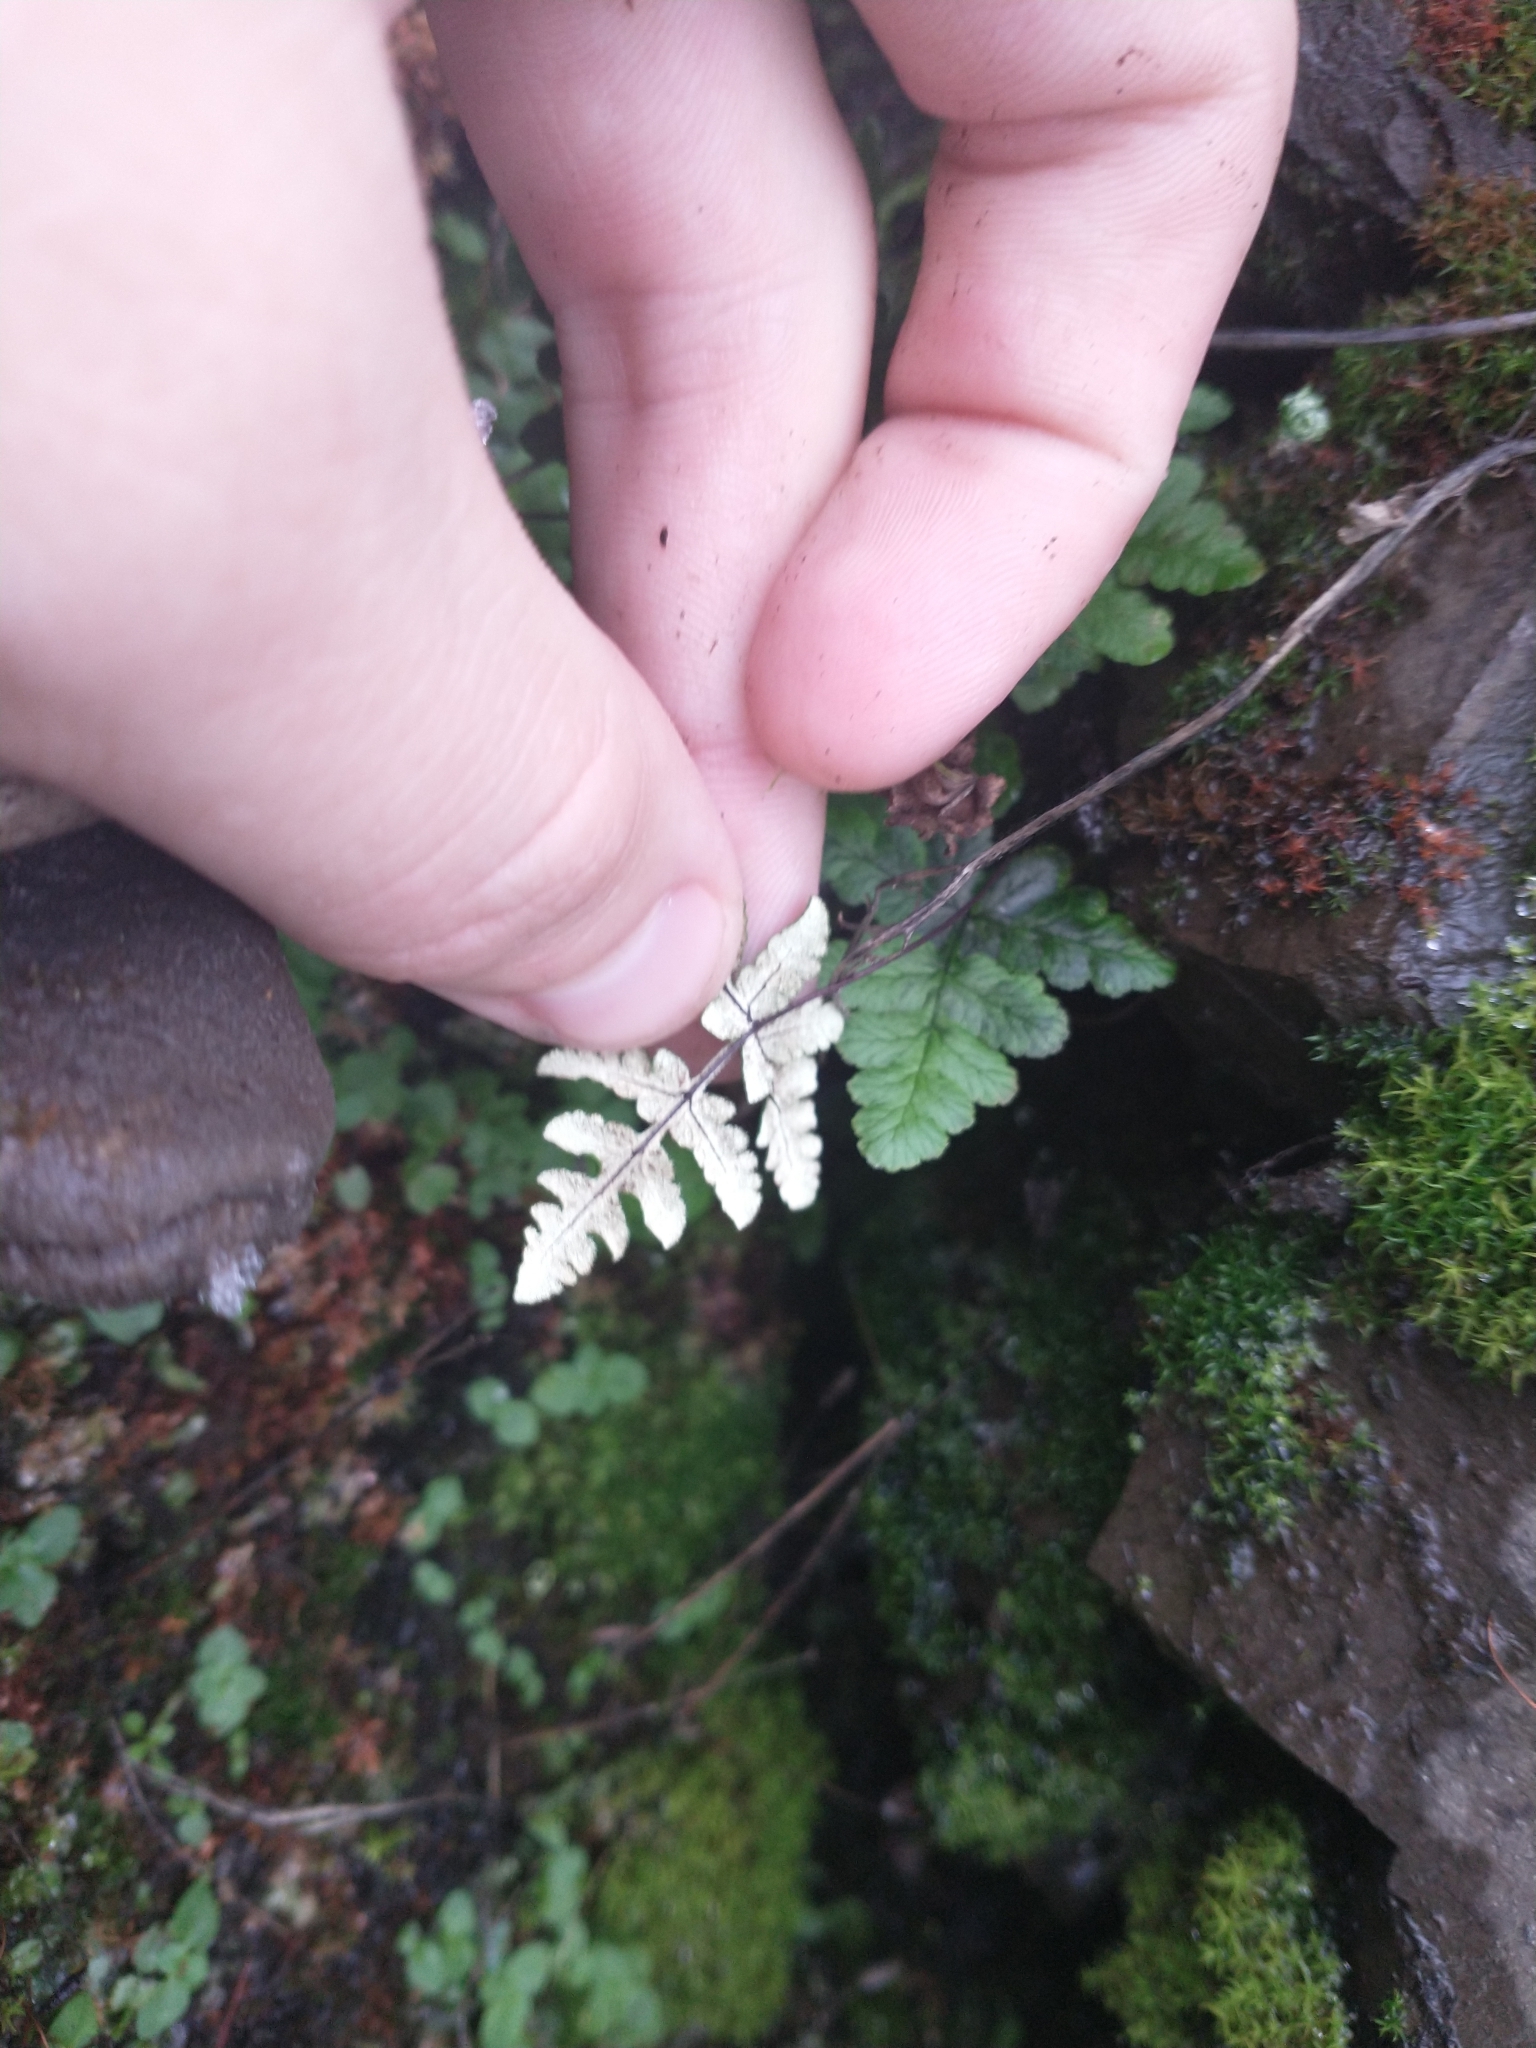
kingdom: Plantae
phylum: Tracheophyta
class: Polypodiopsida
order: Polypodiales
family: Pteridaceae
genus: Pentagramma
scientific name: Pentagramma triangularis
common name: Gold fern
